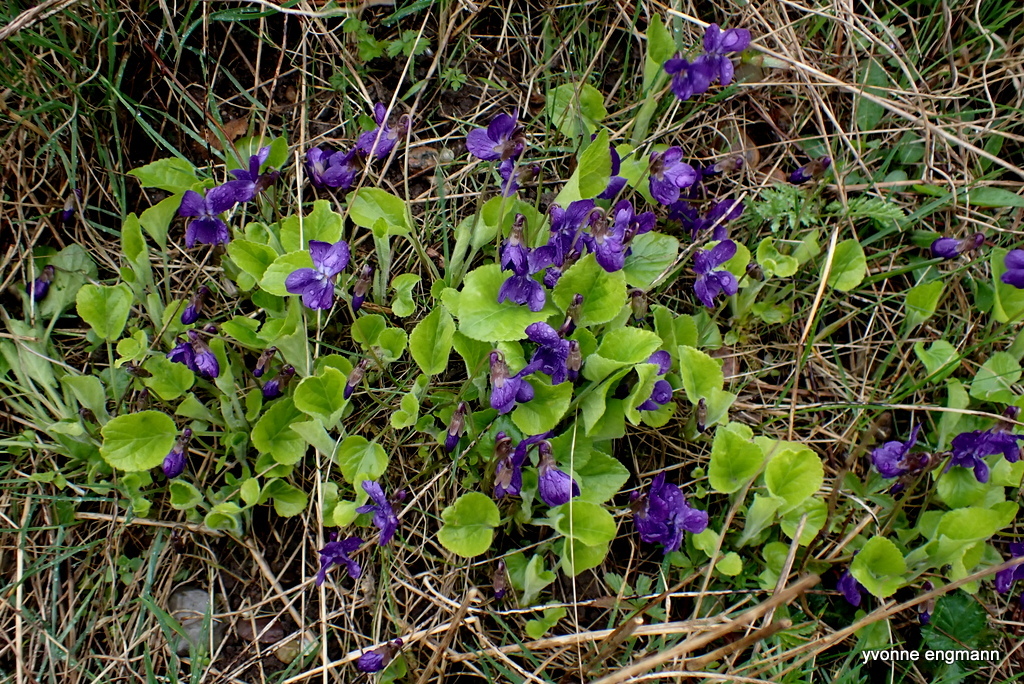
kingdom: Plantae
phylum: Tracheophyta
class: Magnoliopsida
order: Malpighiales
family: Violaceae
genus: Viola
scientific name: Viola odorata
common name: Sweet violet
